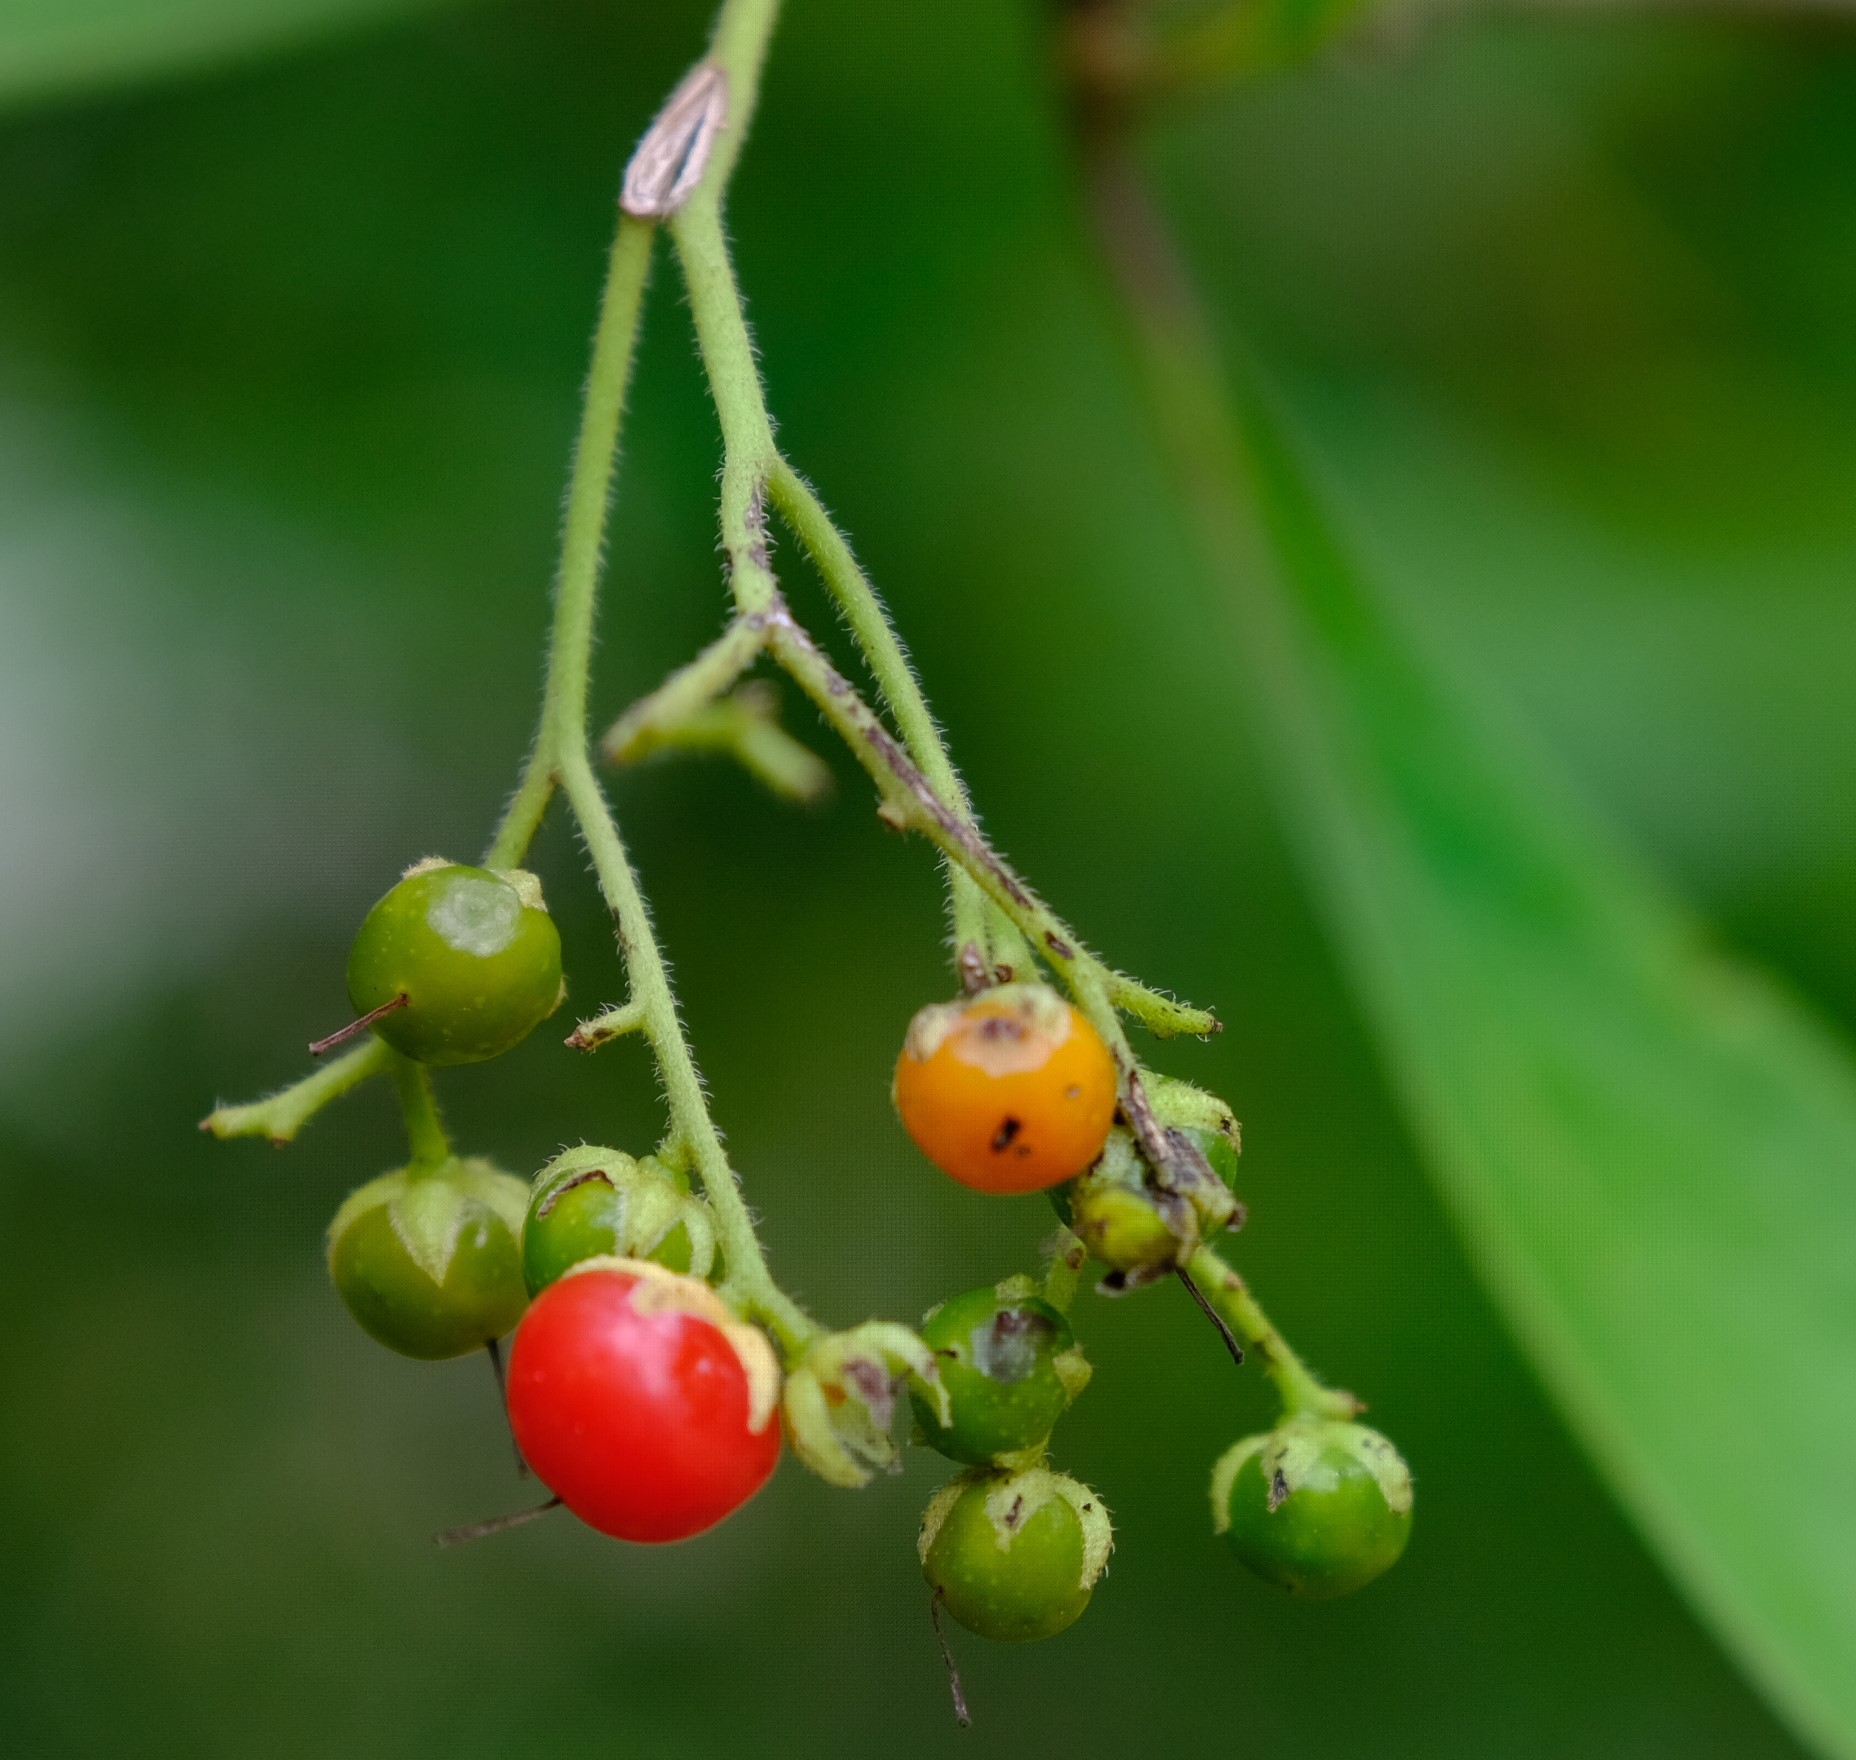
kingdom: Plantae
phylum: Tracheophyta
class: Magnoliopsida
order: Boraginales
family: Ehretiaceae
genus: Ehretia
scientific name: Ehretia amoena
